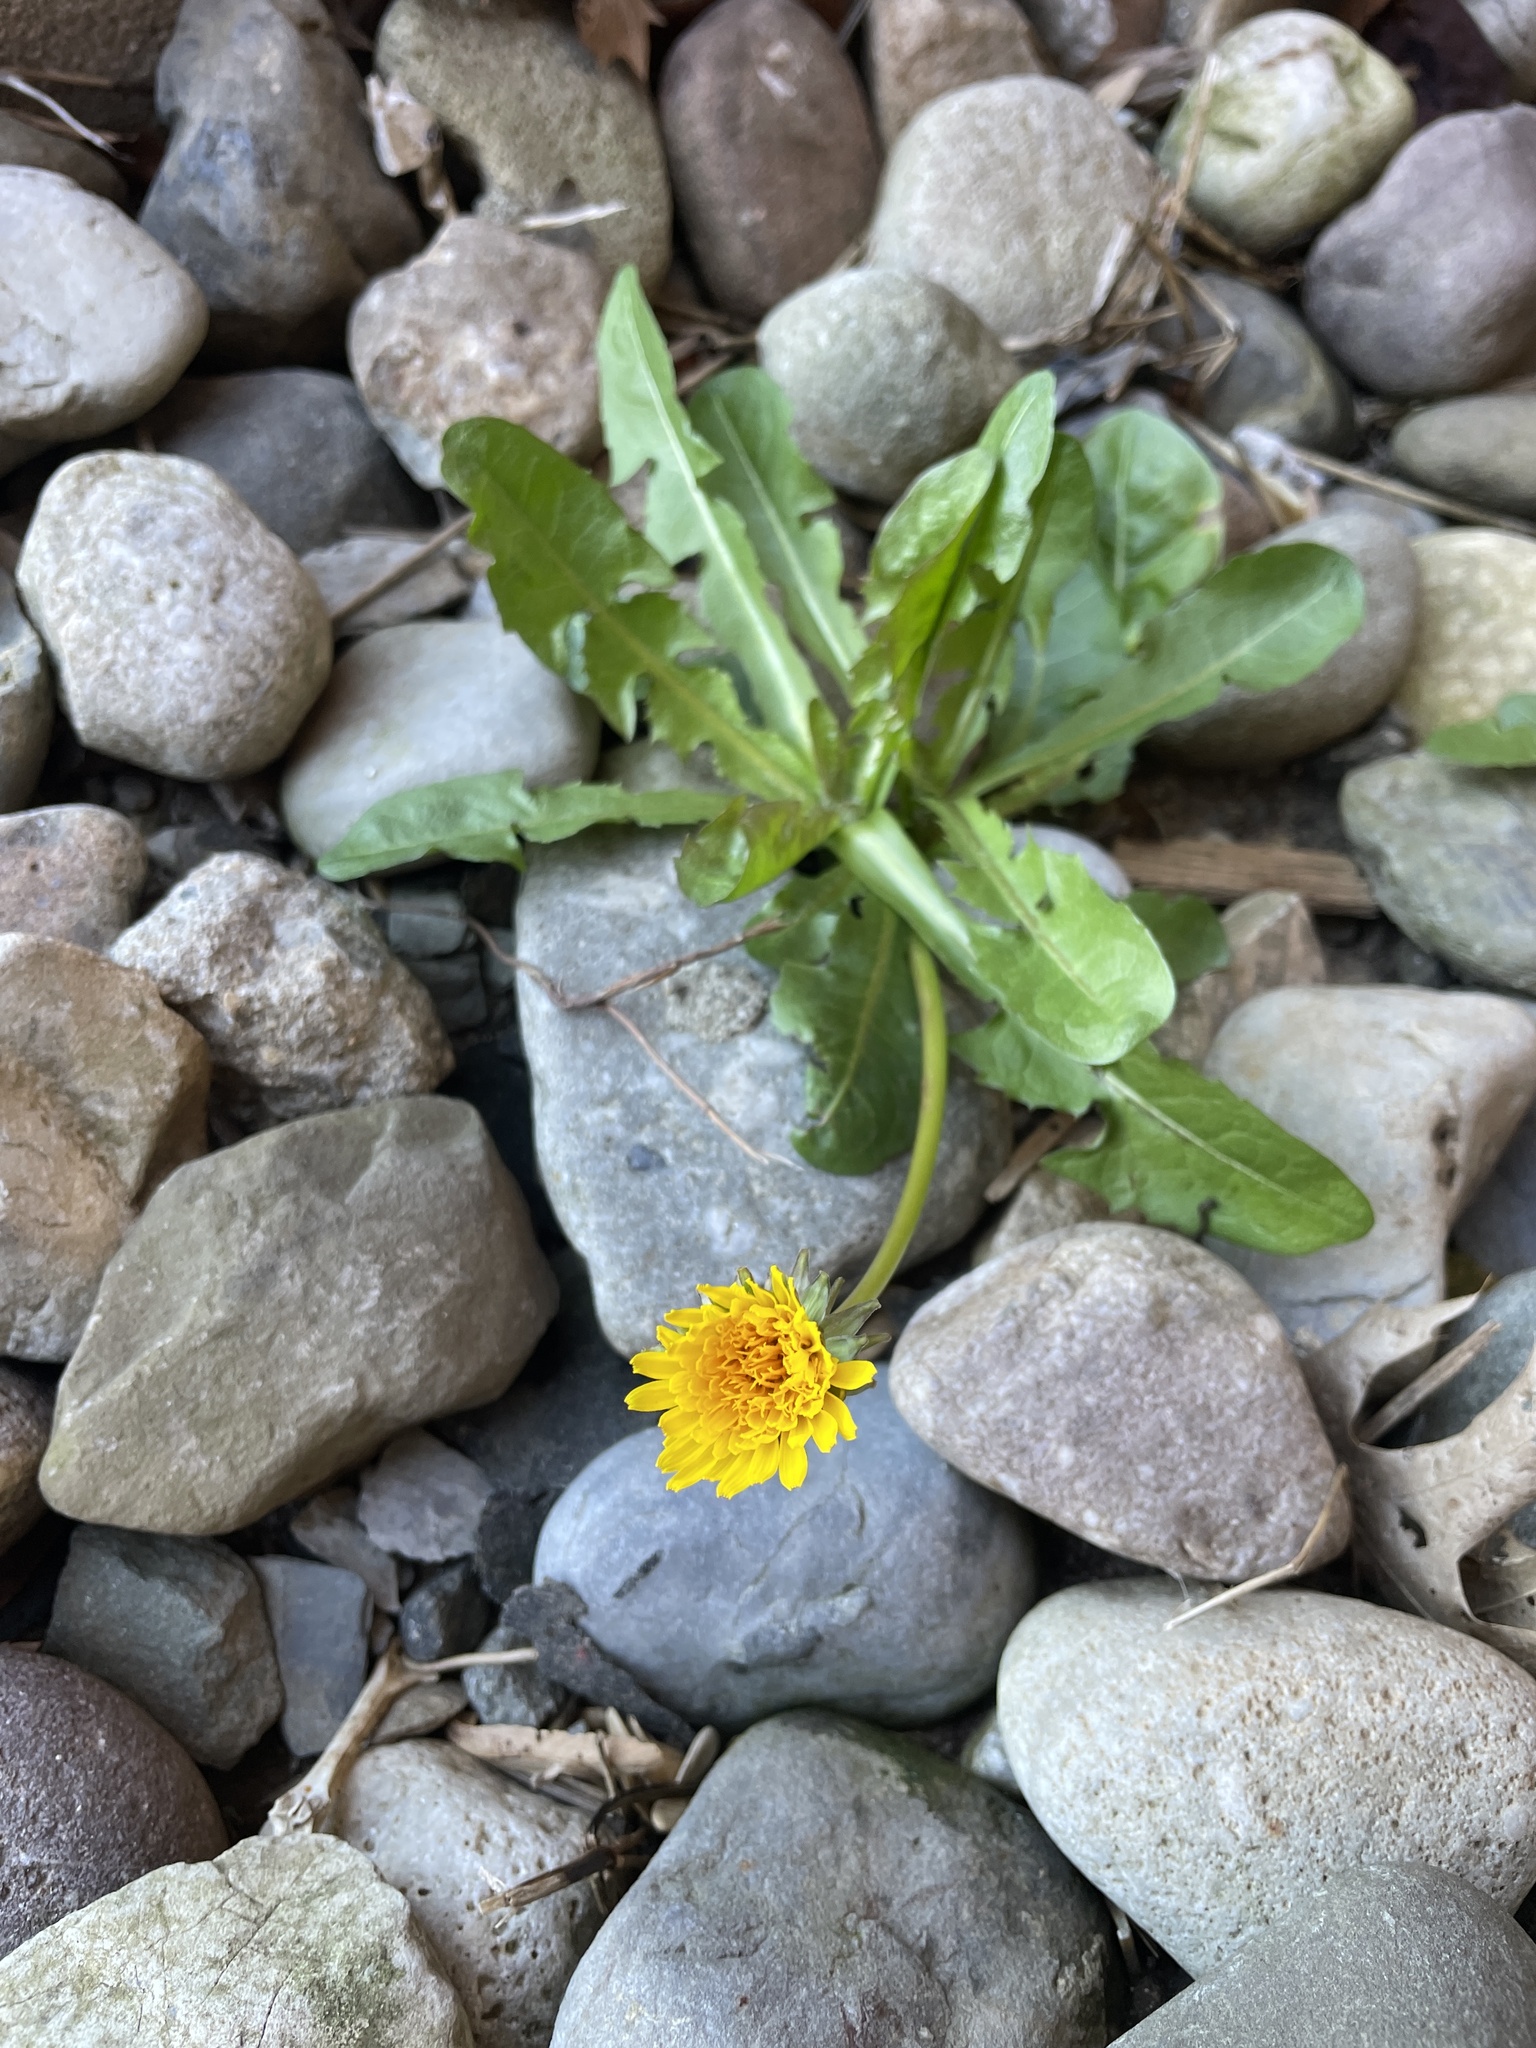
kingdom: Plantae
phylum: Tracheophyta
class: Magnoliopsida
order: Asterales
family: Asteraceae
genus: Taraxacum
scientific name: Taraxacum officinale
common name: Common dandelion
